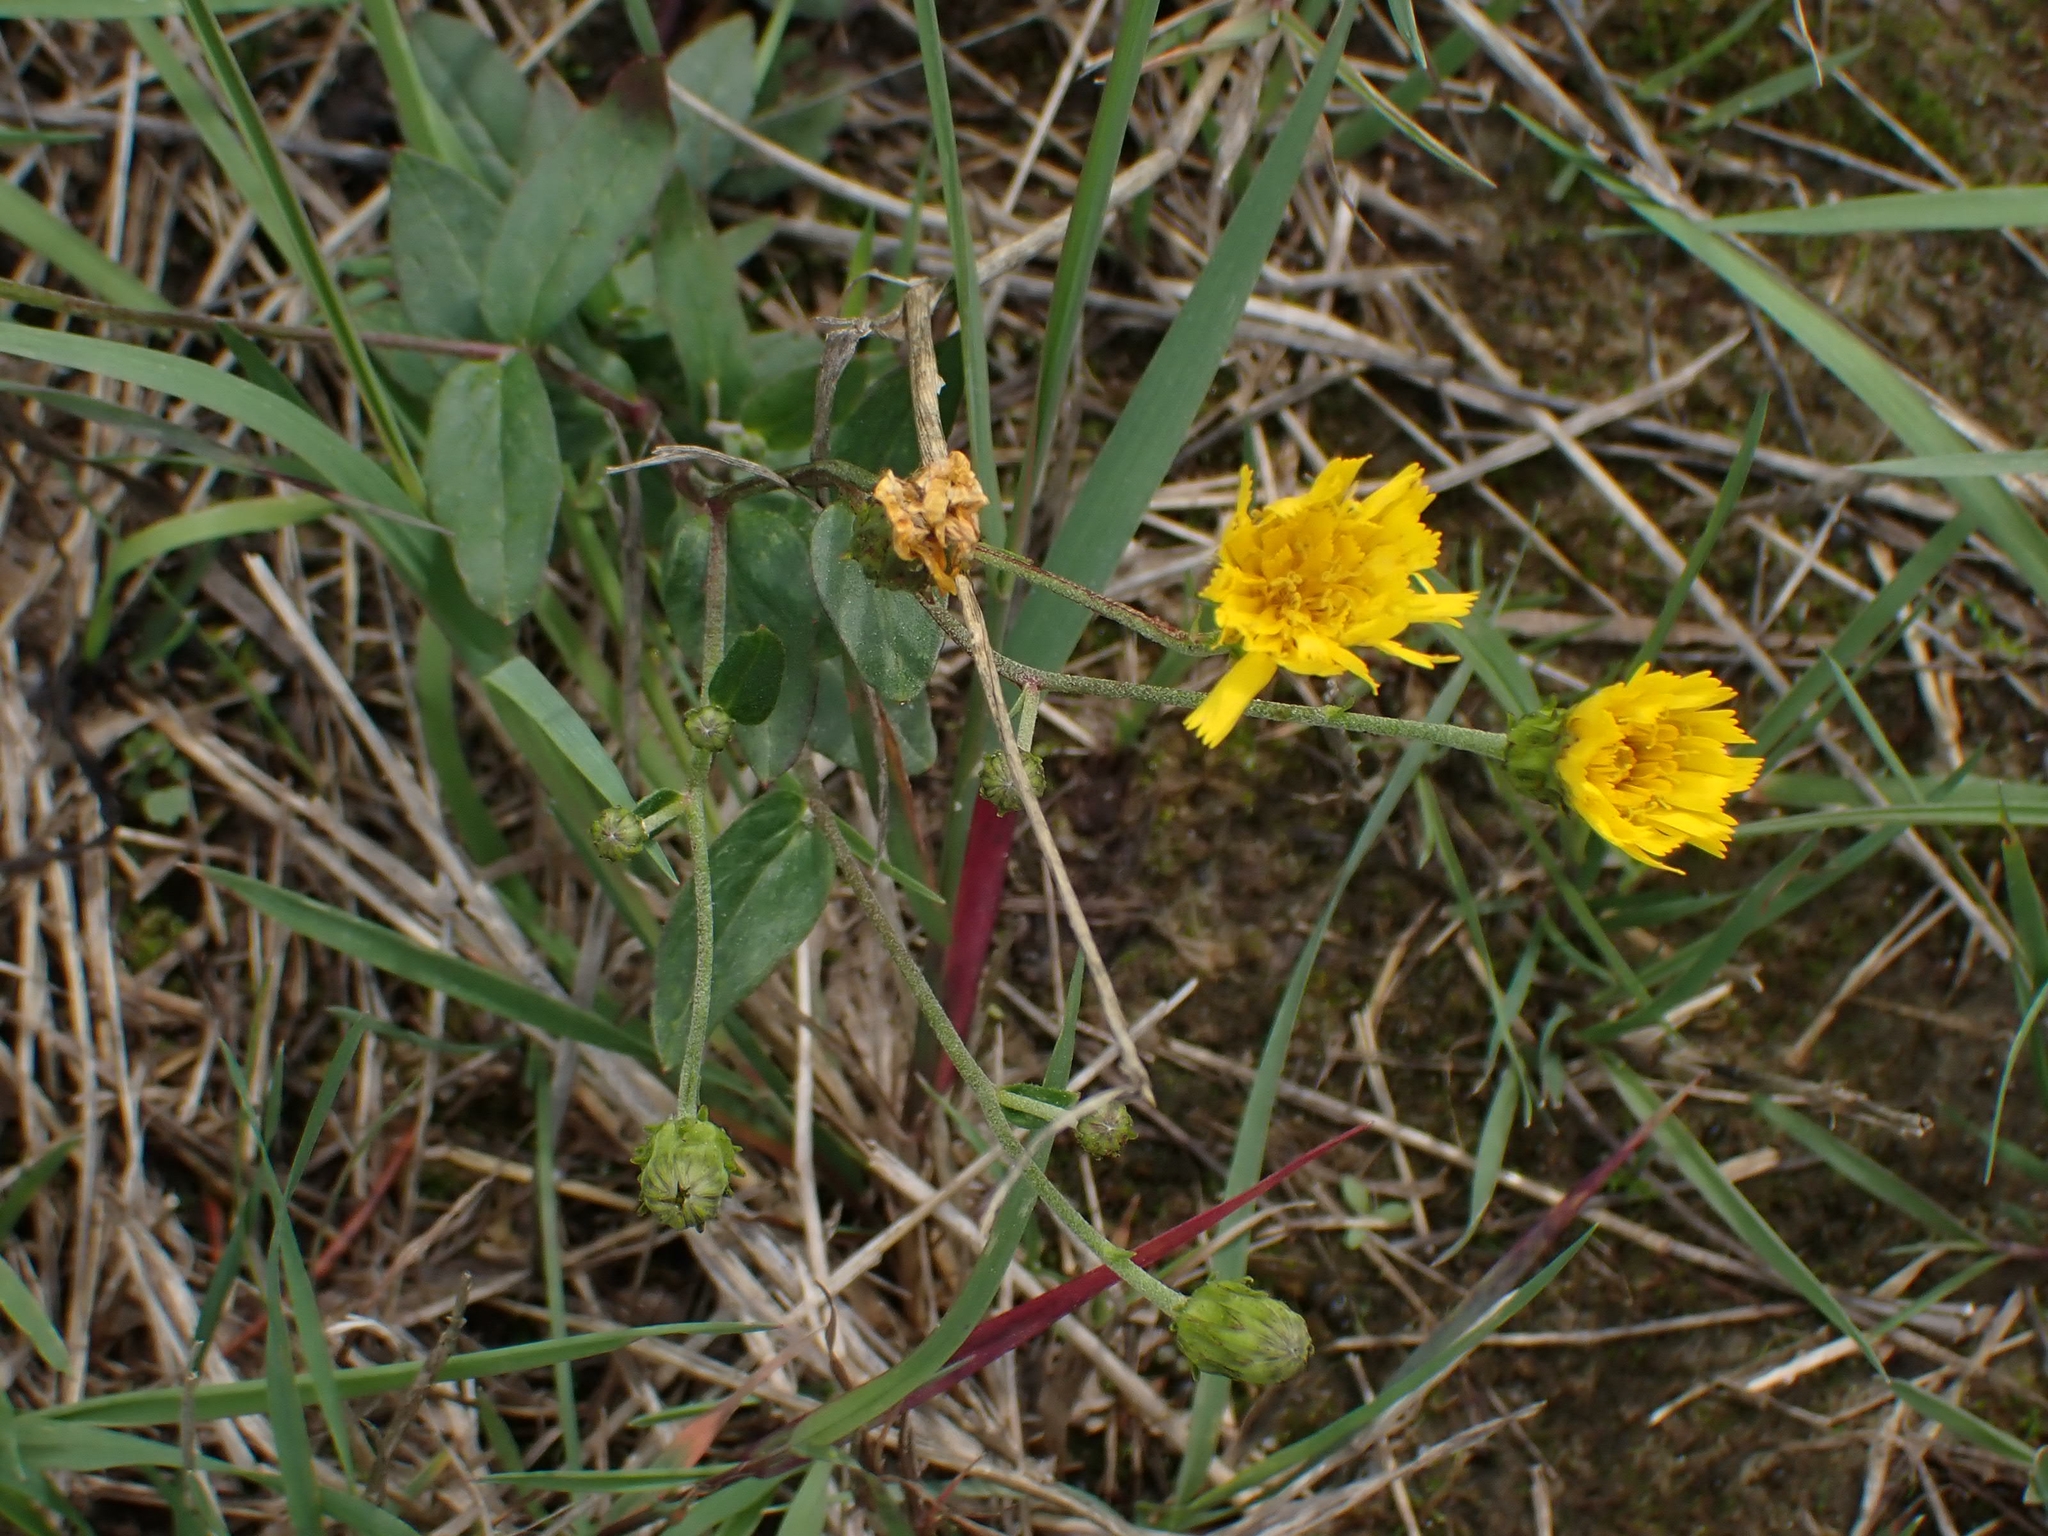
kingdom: Plantae
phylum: Tracheophyta
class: Magnoliopsida
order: Asterales
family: Asteraceae
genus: Hieracium
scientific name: Hieracium umbellatum
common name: Northern hawkweed
